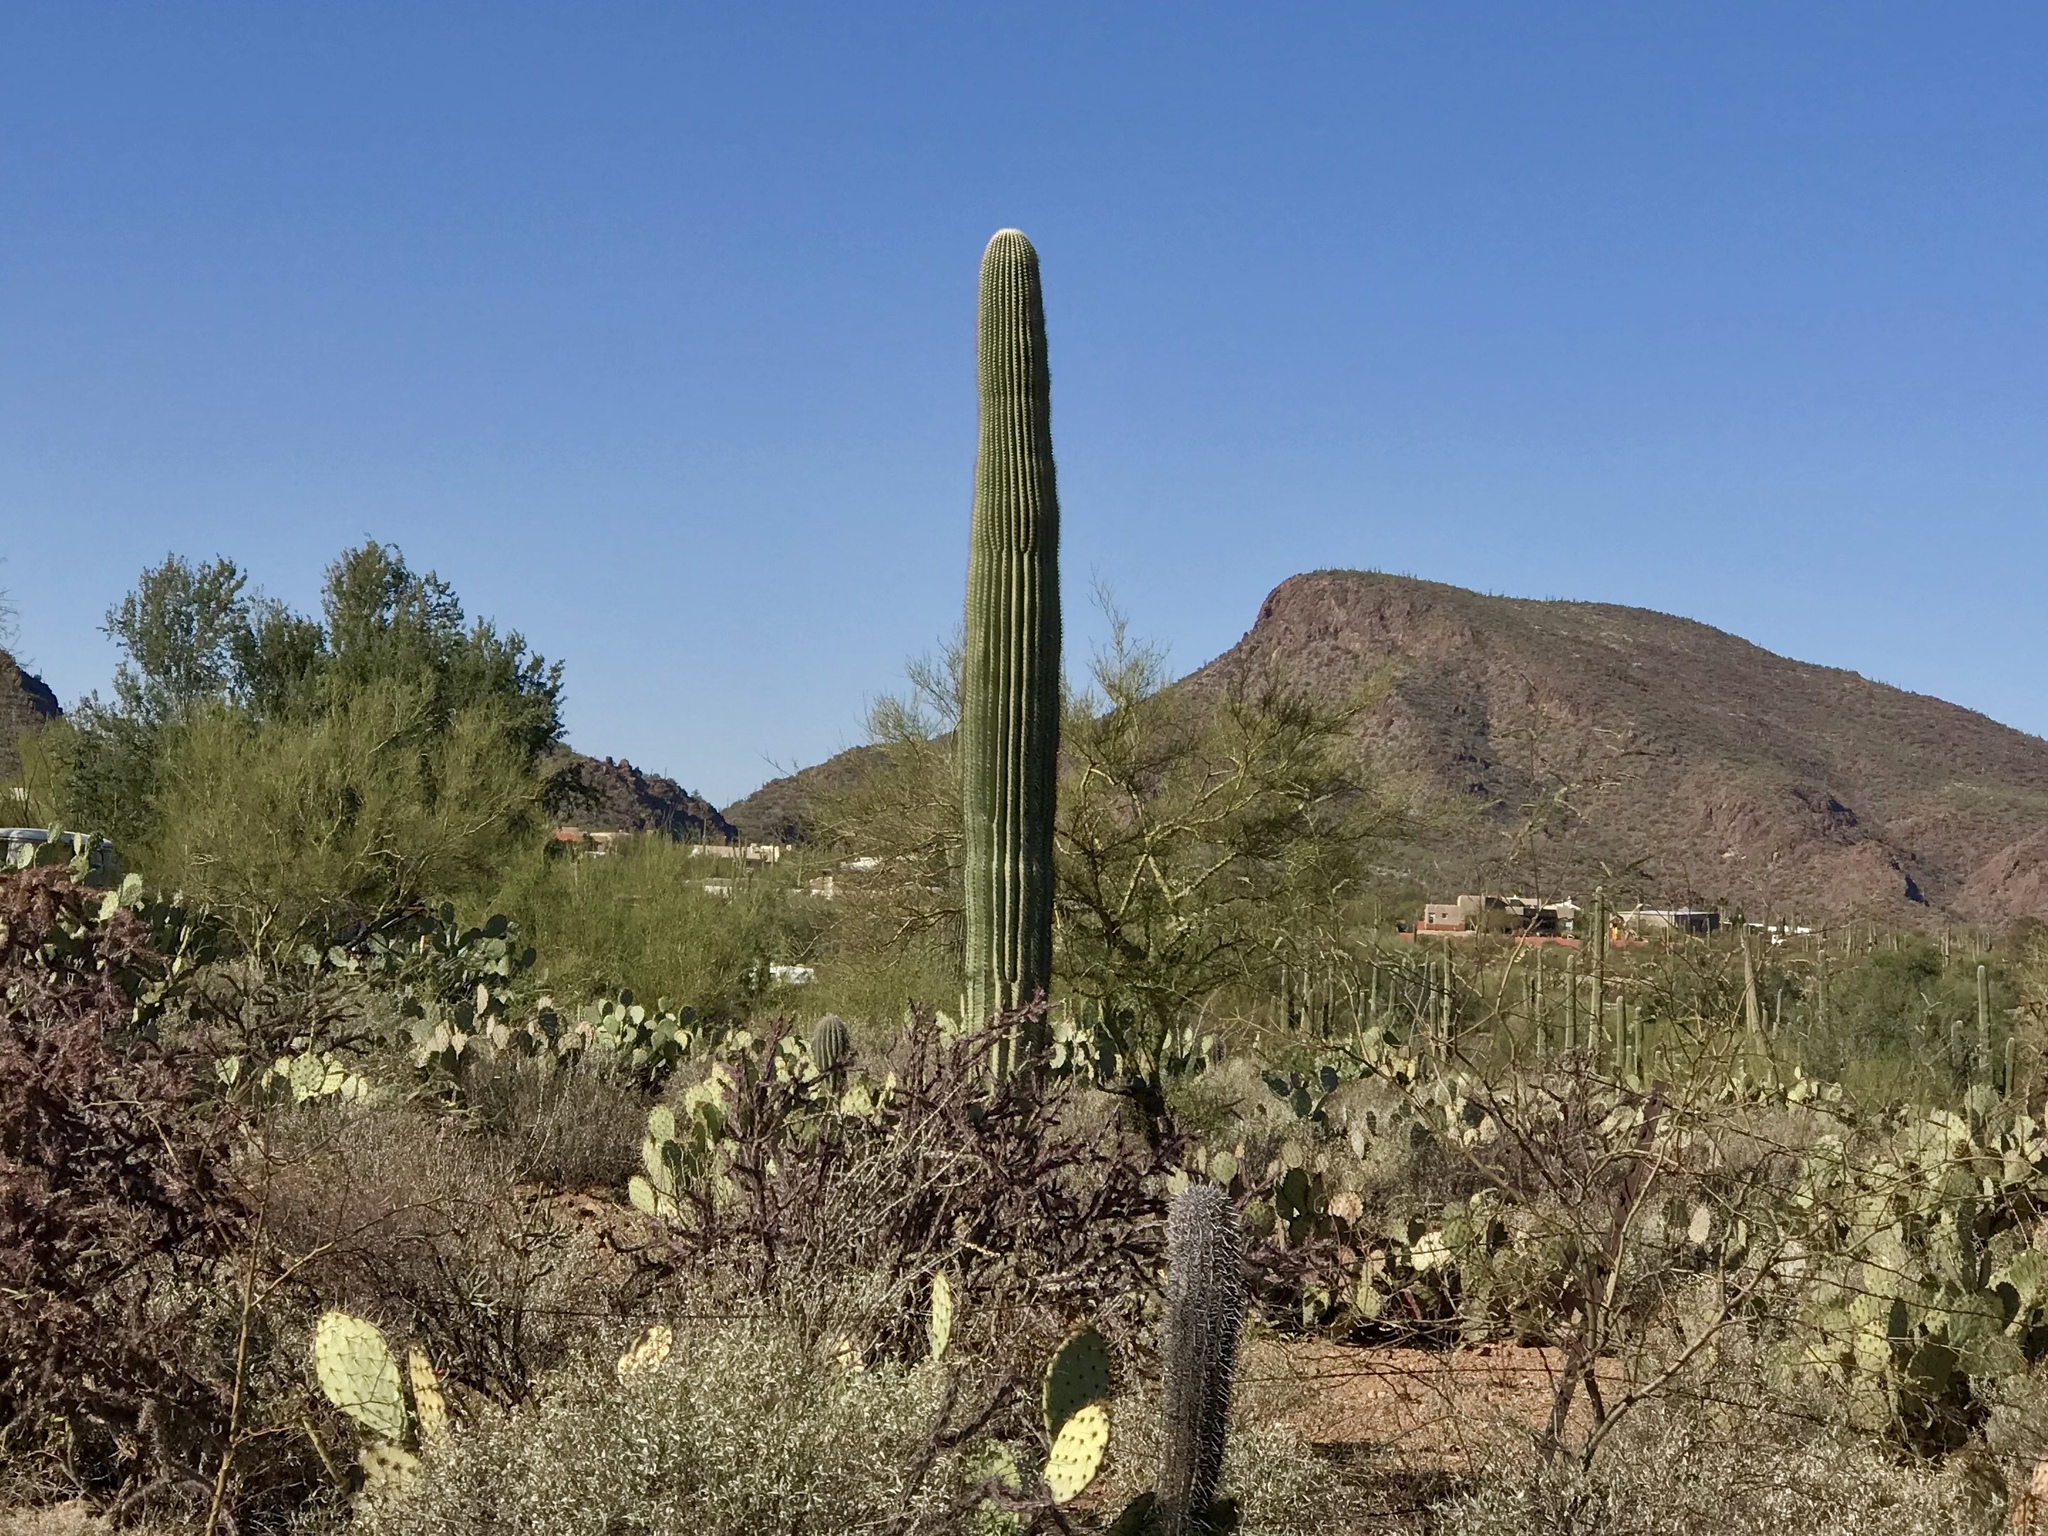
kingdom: Plantae
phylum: Tracheophyta
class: Magnoliopsida
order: Caryophyllales
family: Cactaceae
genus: Carnegiea
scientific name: Carnegiea gigantea
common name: Saguaro
